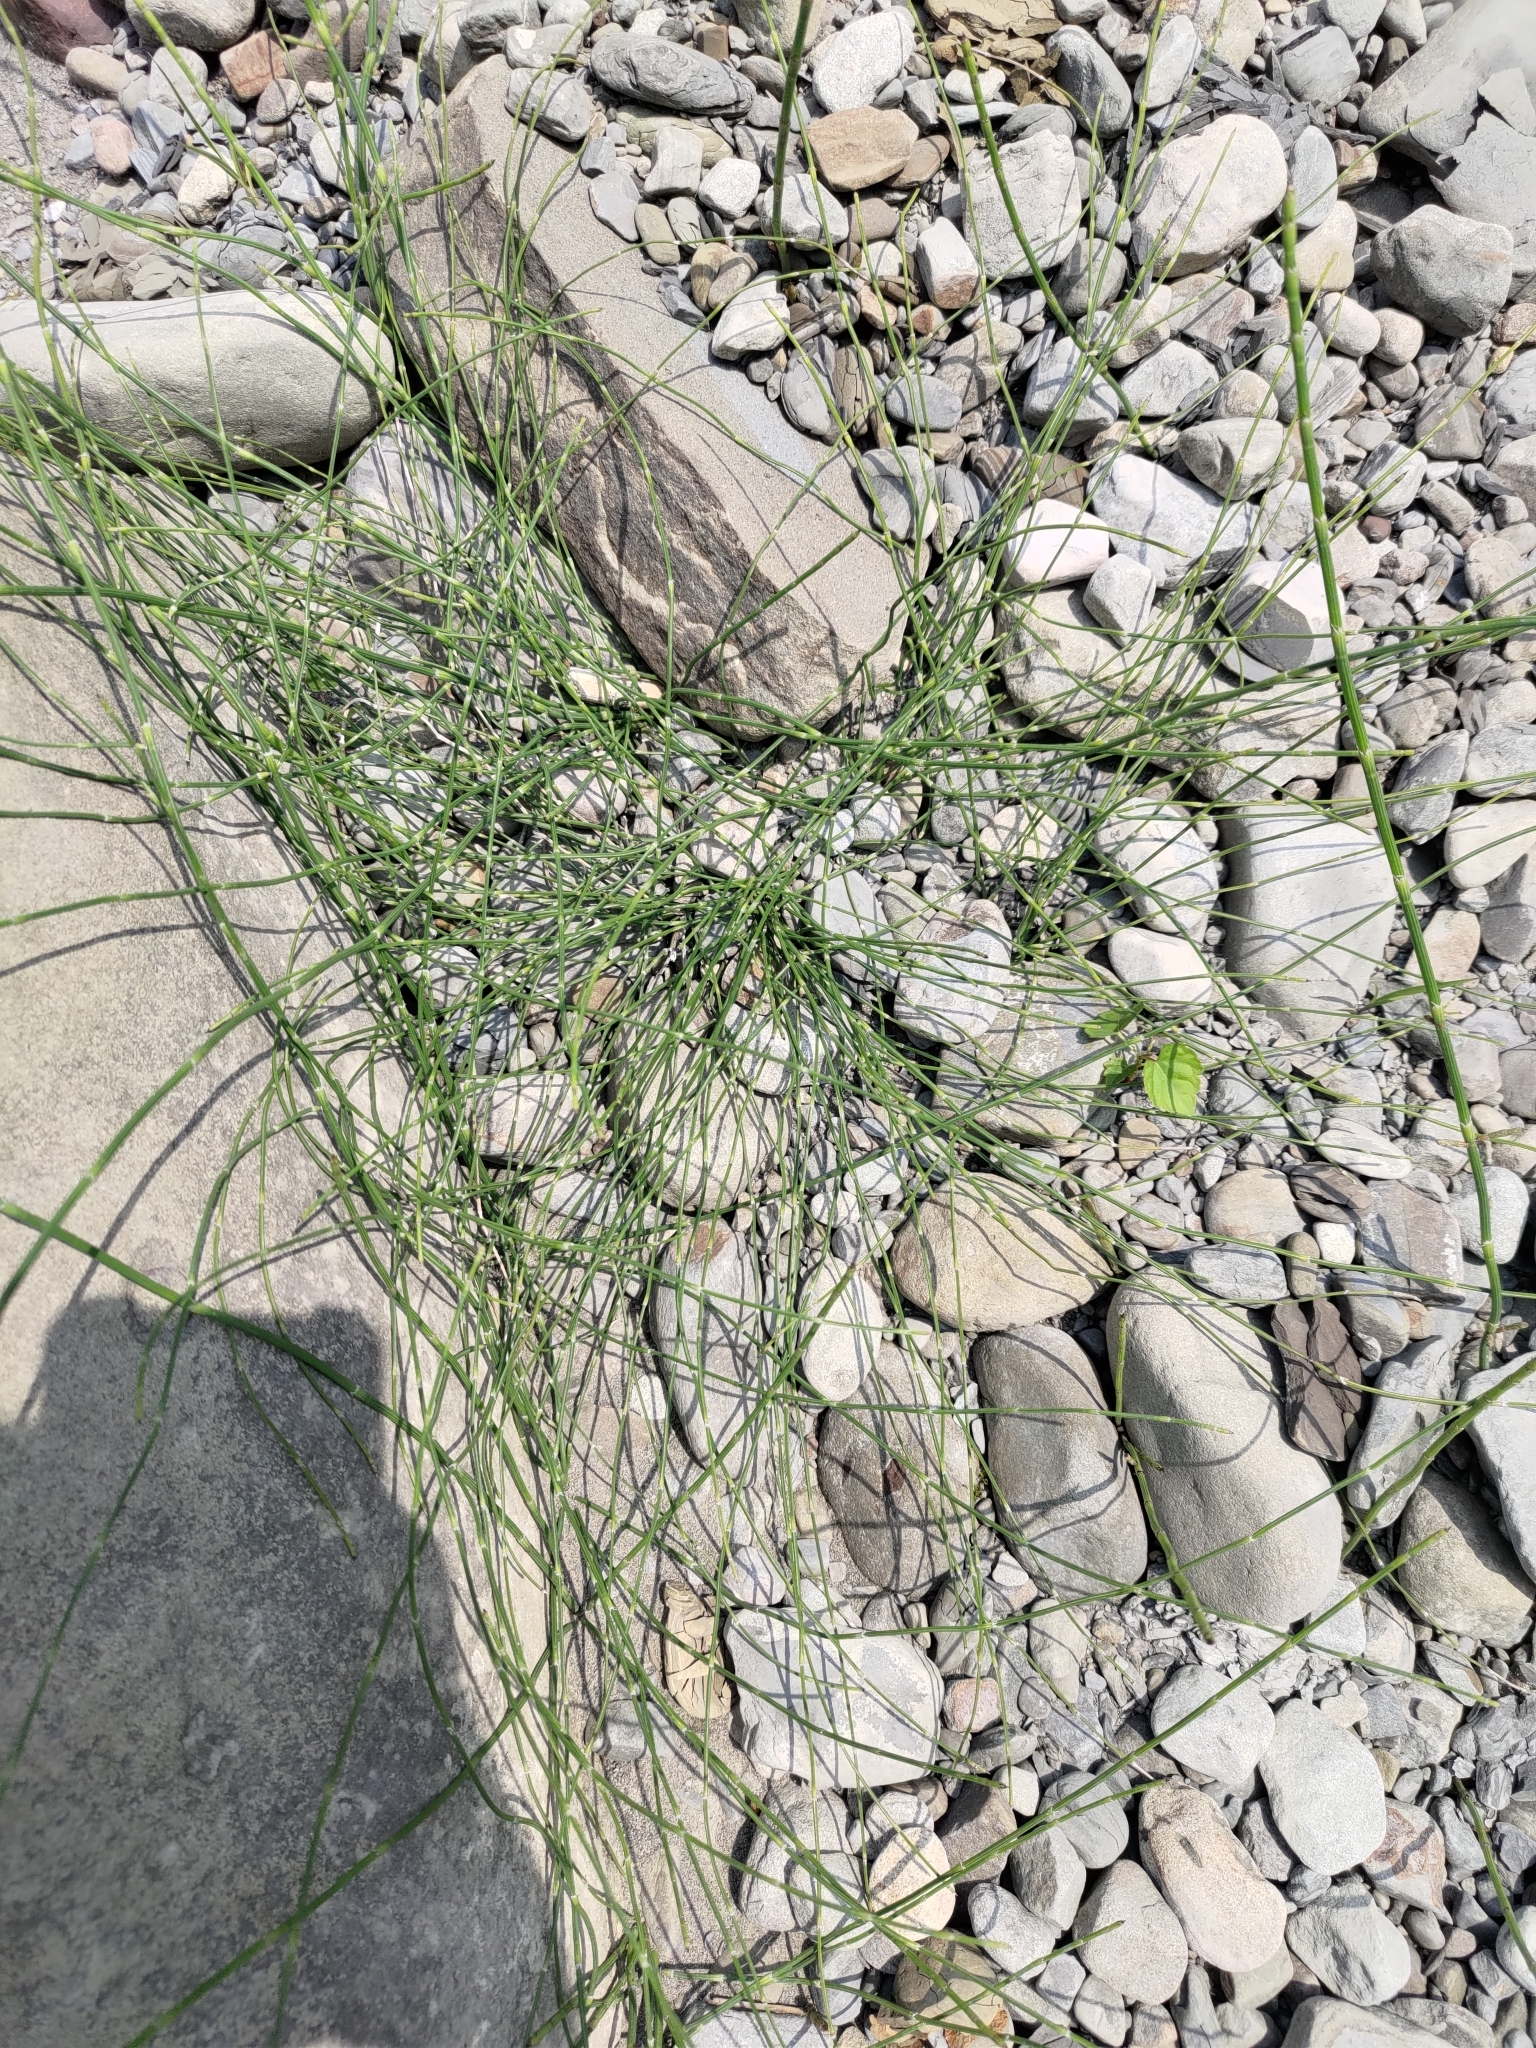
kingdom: Plantae
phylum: Tracheophyta
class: Polypodiopsida
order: Equisetales
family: Equisetaceae
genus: Equisetum
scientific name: Equisetum ramosissimum
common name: Branched horsetail
